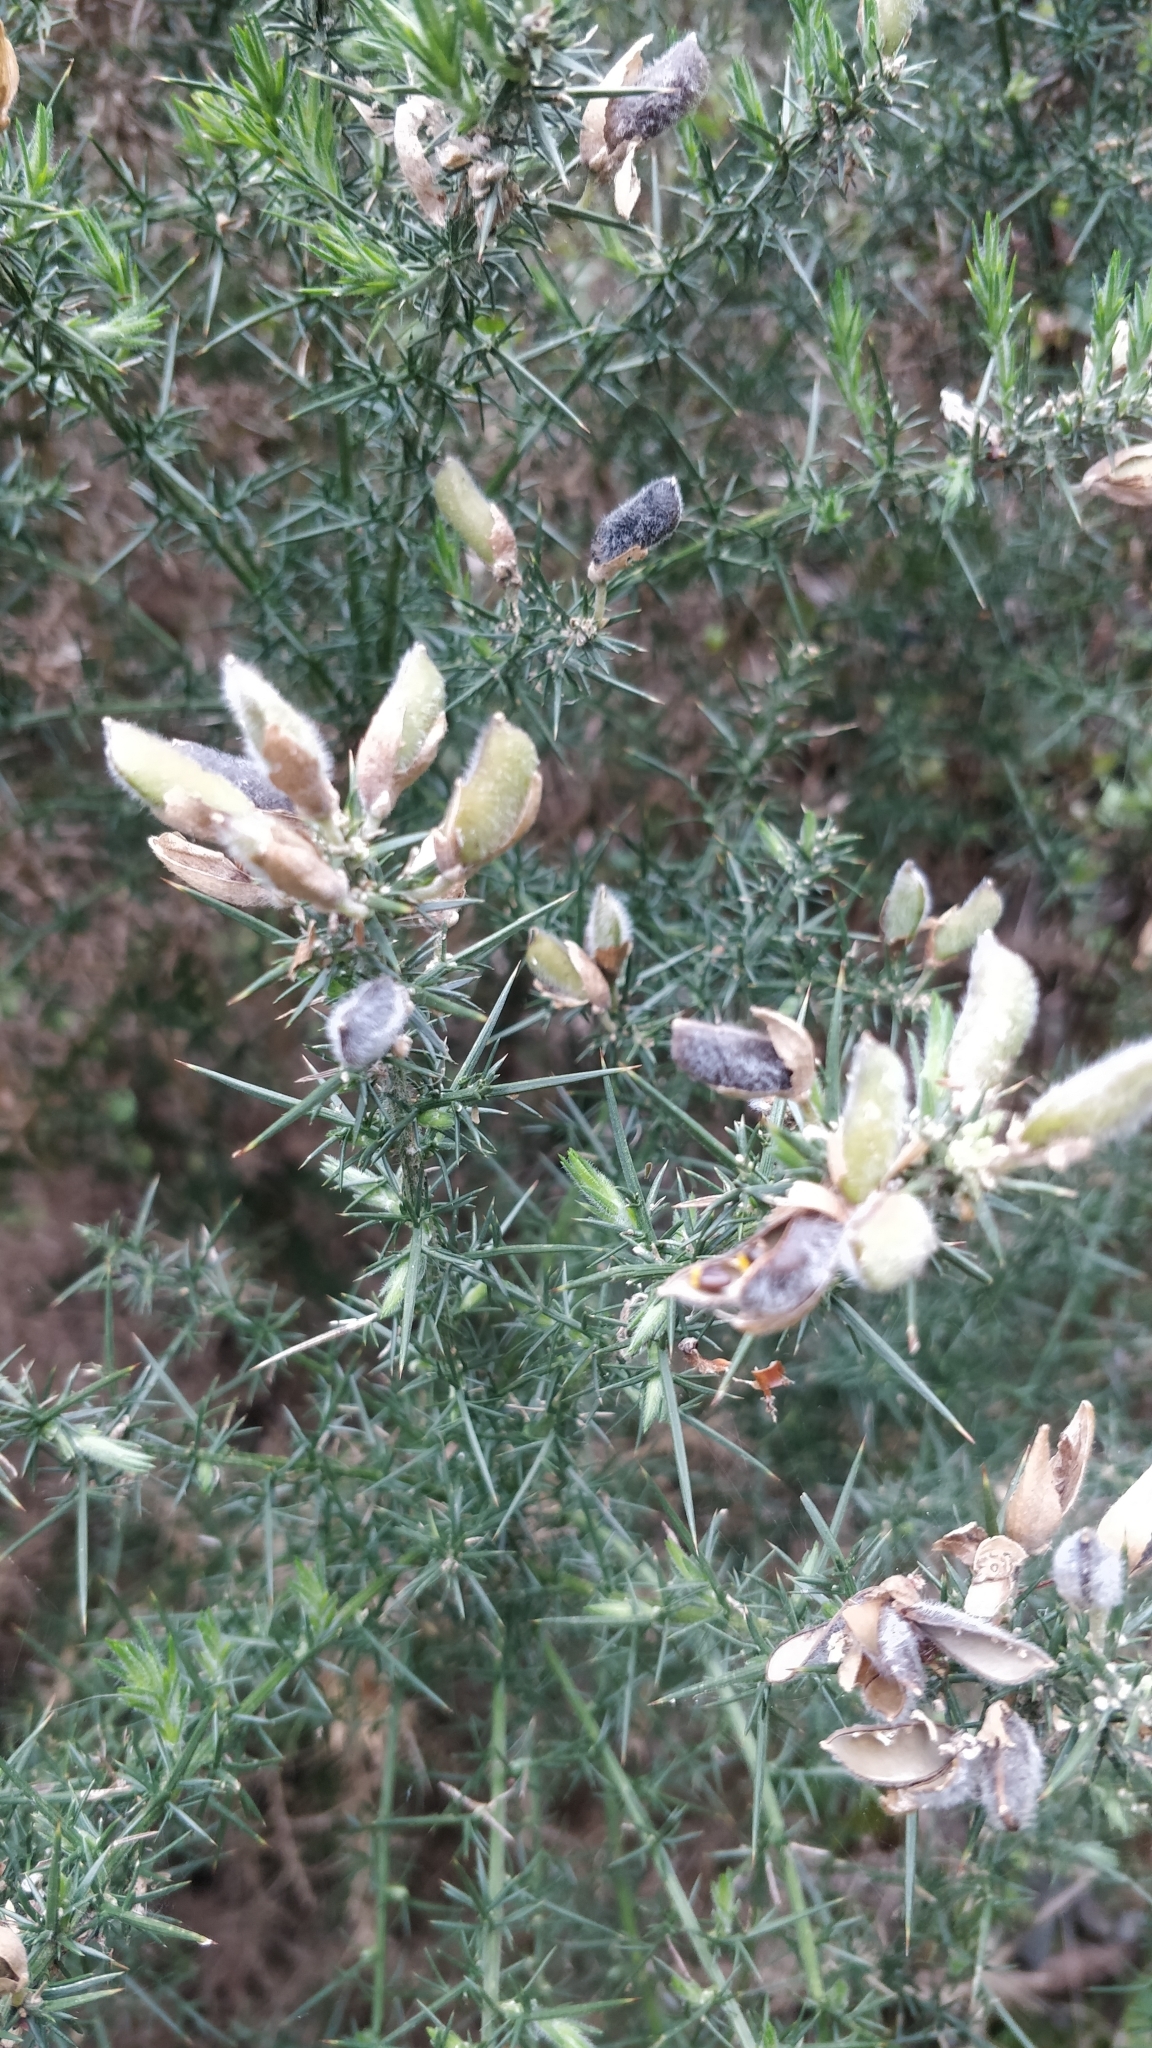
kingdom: Plantae
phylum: Tracheophyta
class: Magnoliopsida
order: Fabales
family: Fabaceae
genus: Ulex
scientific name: Ulex europaeus
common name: Common gorse
